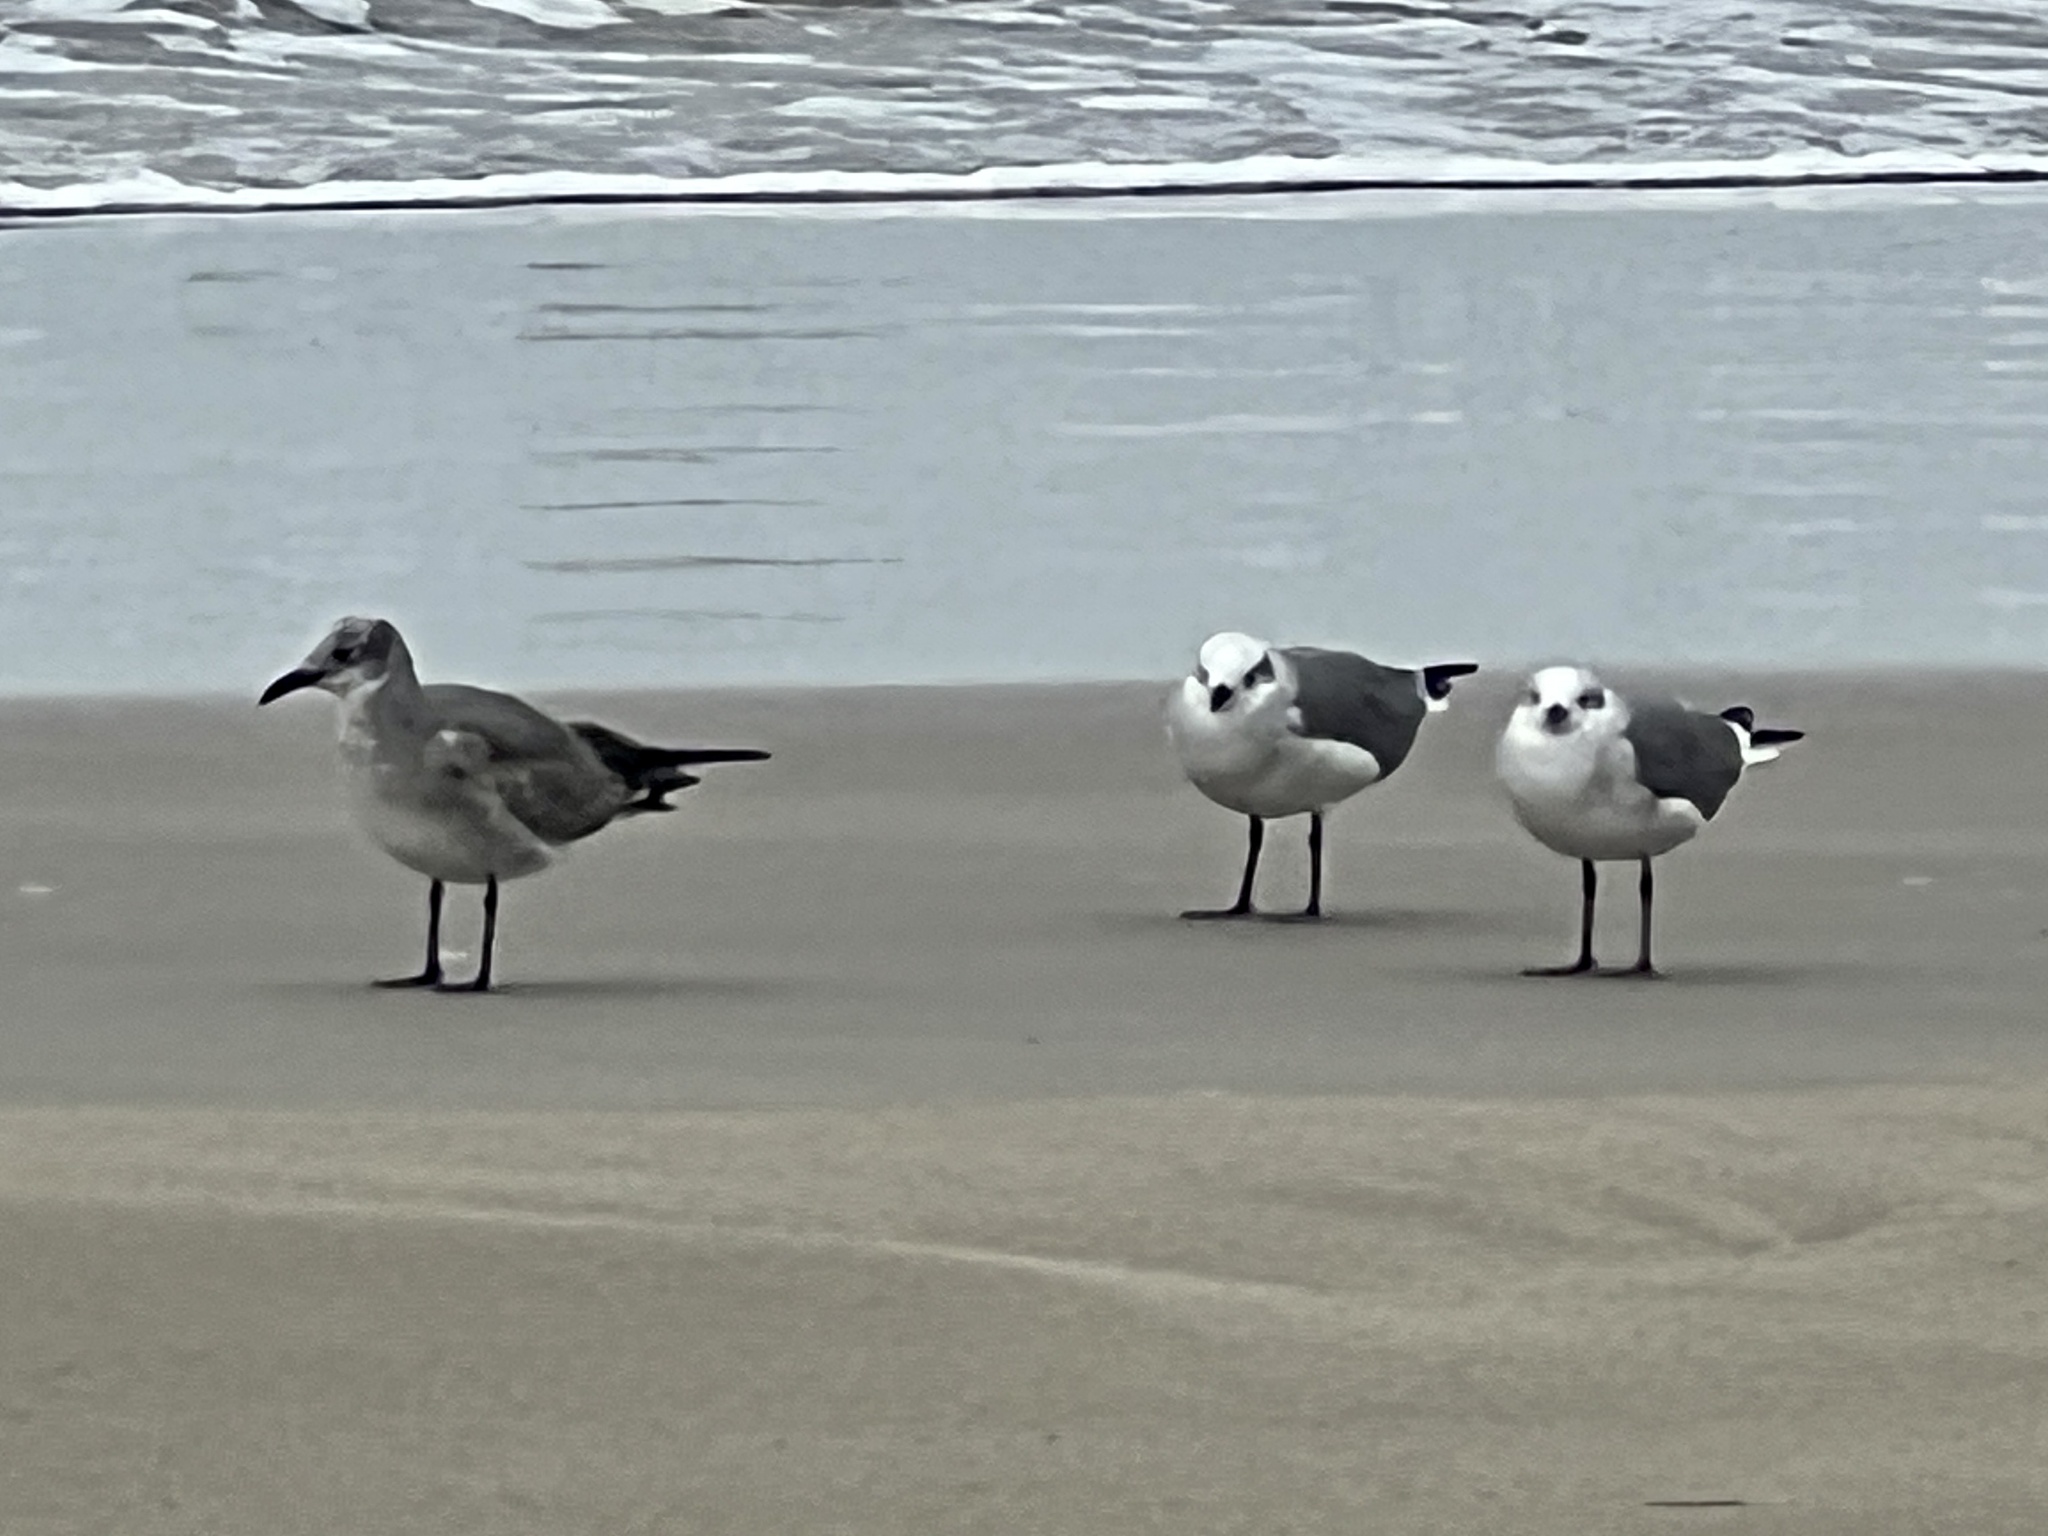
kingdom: Animalia
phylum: Chordata
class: Aves
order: Charadriiformes
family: Laridae
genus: Leucophaeus
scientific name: Leucophaeus atricilla
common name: Laughing gull
